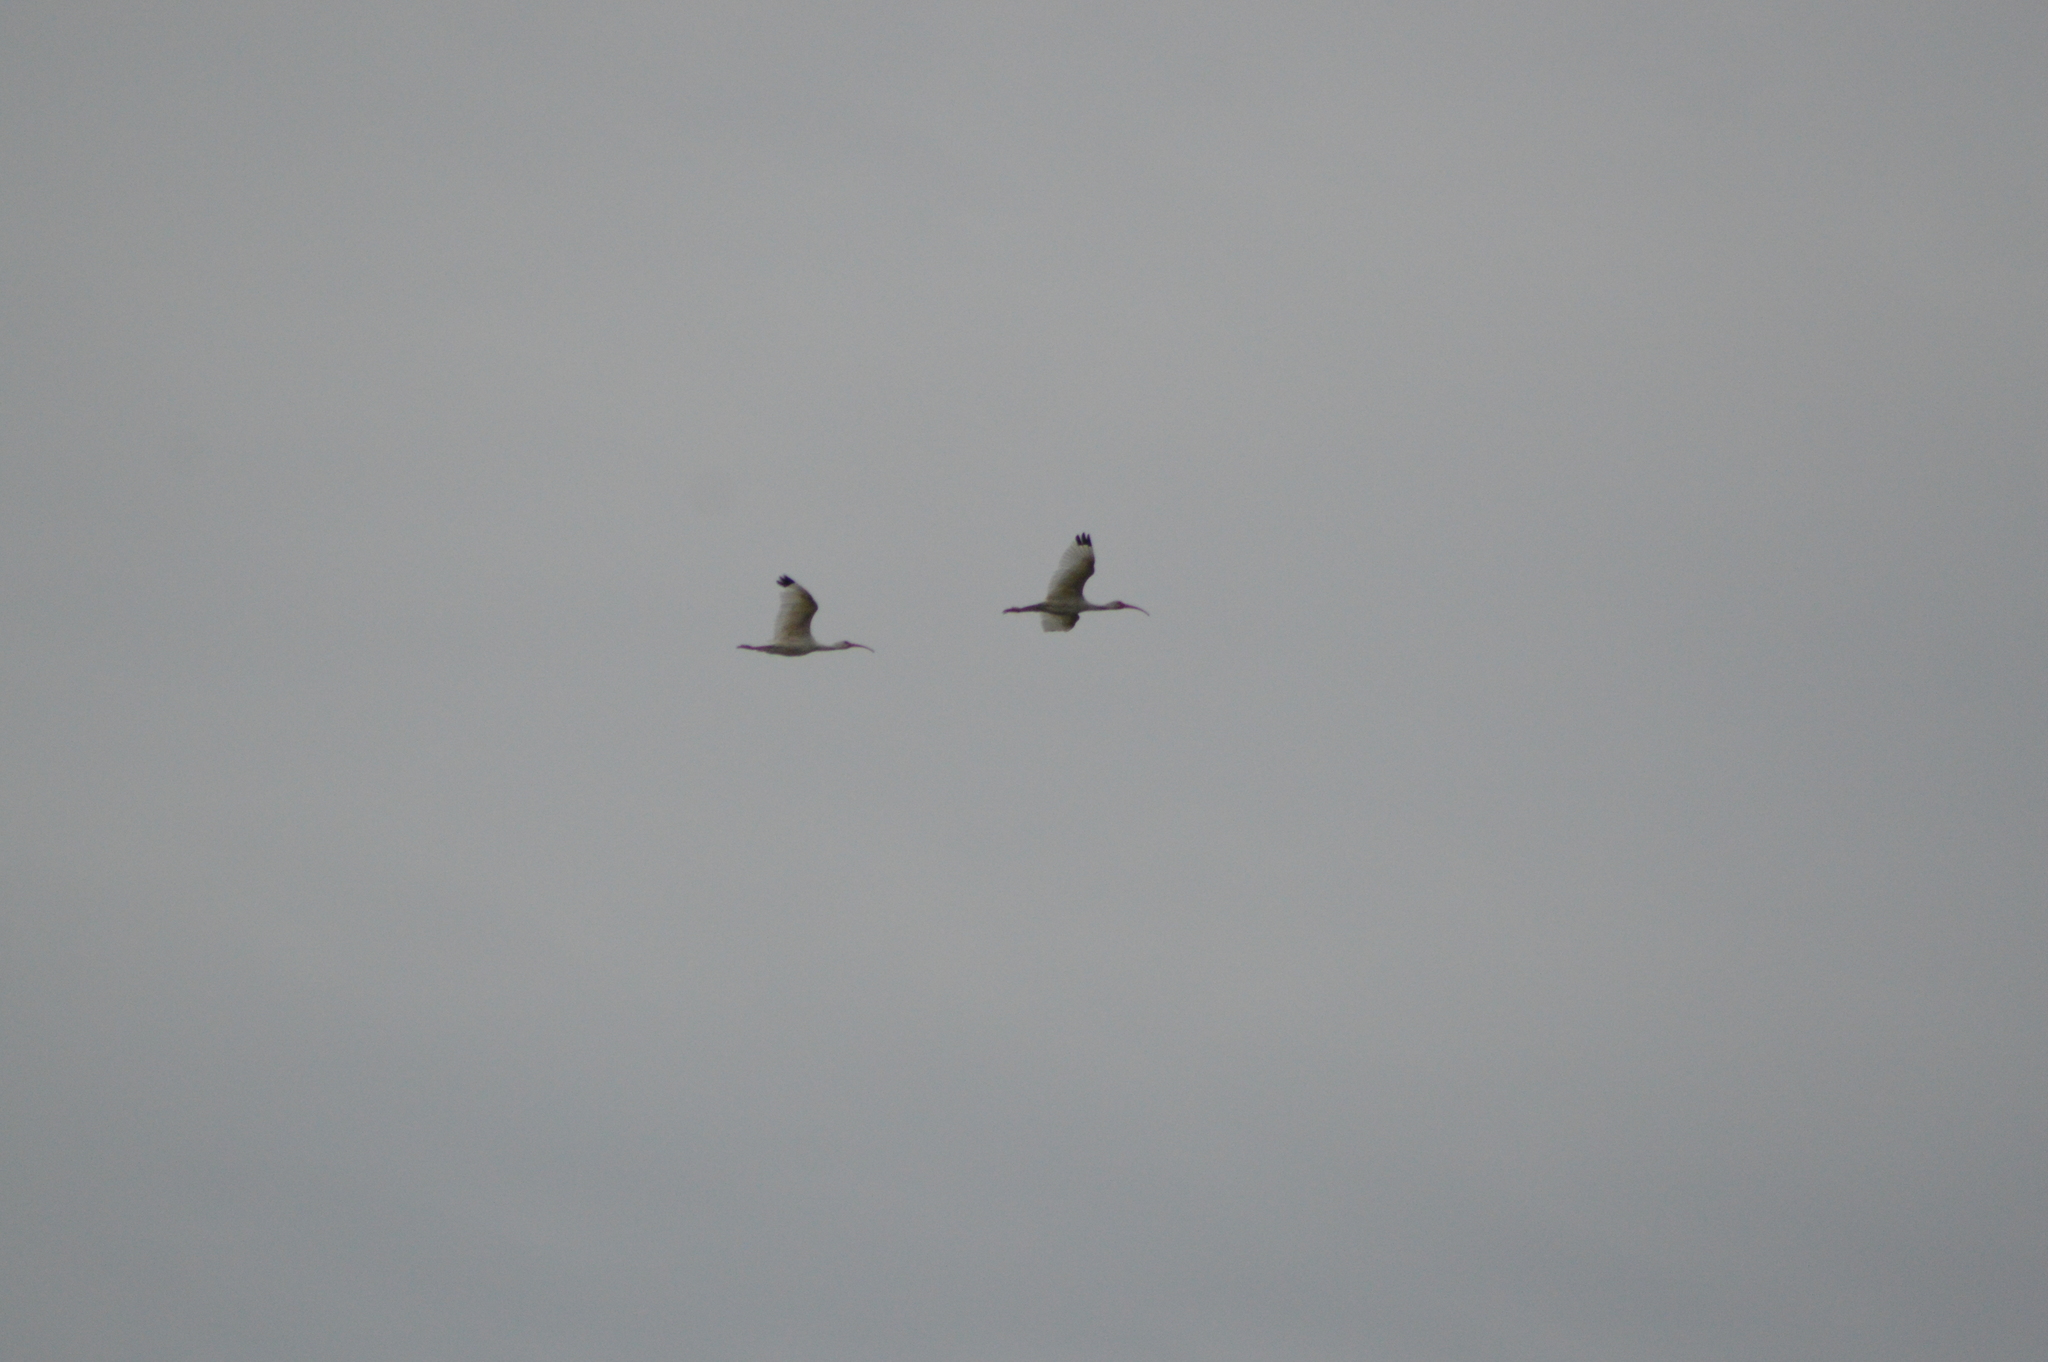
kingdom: Animalia
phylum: Chordata
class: Aves
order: Pelecaniformes
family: Threskiornithidae
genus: Eudocimus
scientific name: Eudocimus albus
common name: White ibis
